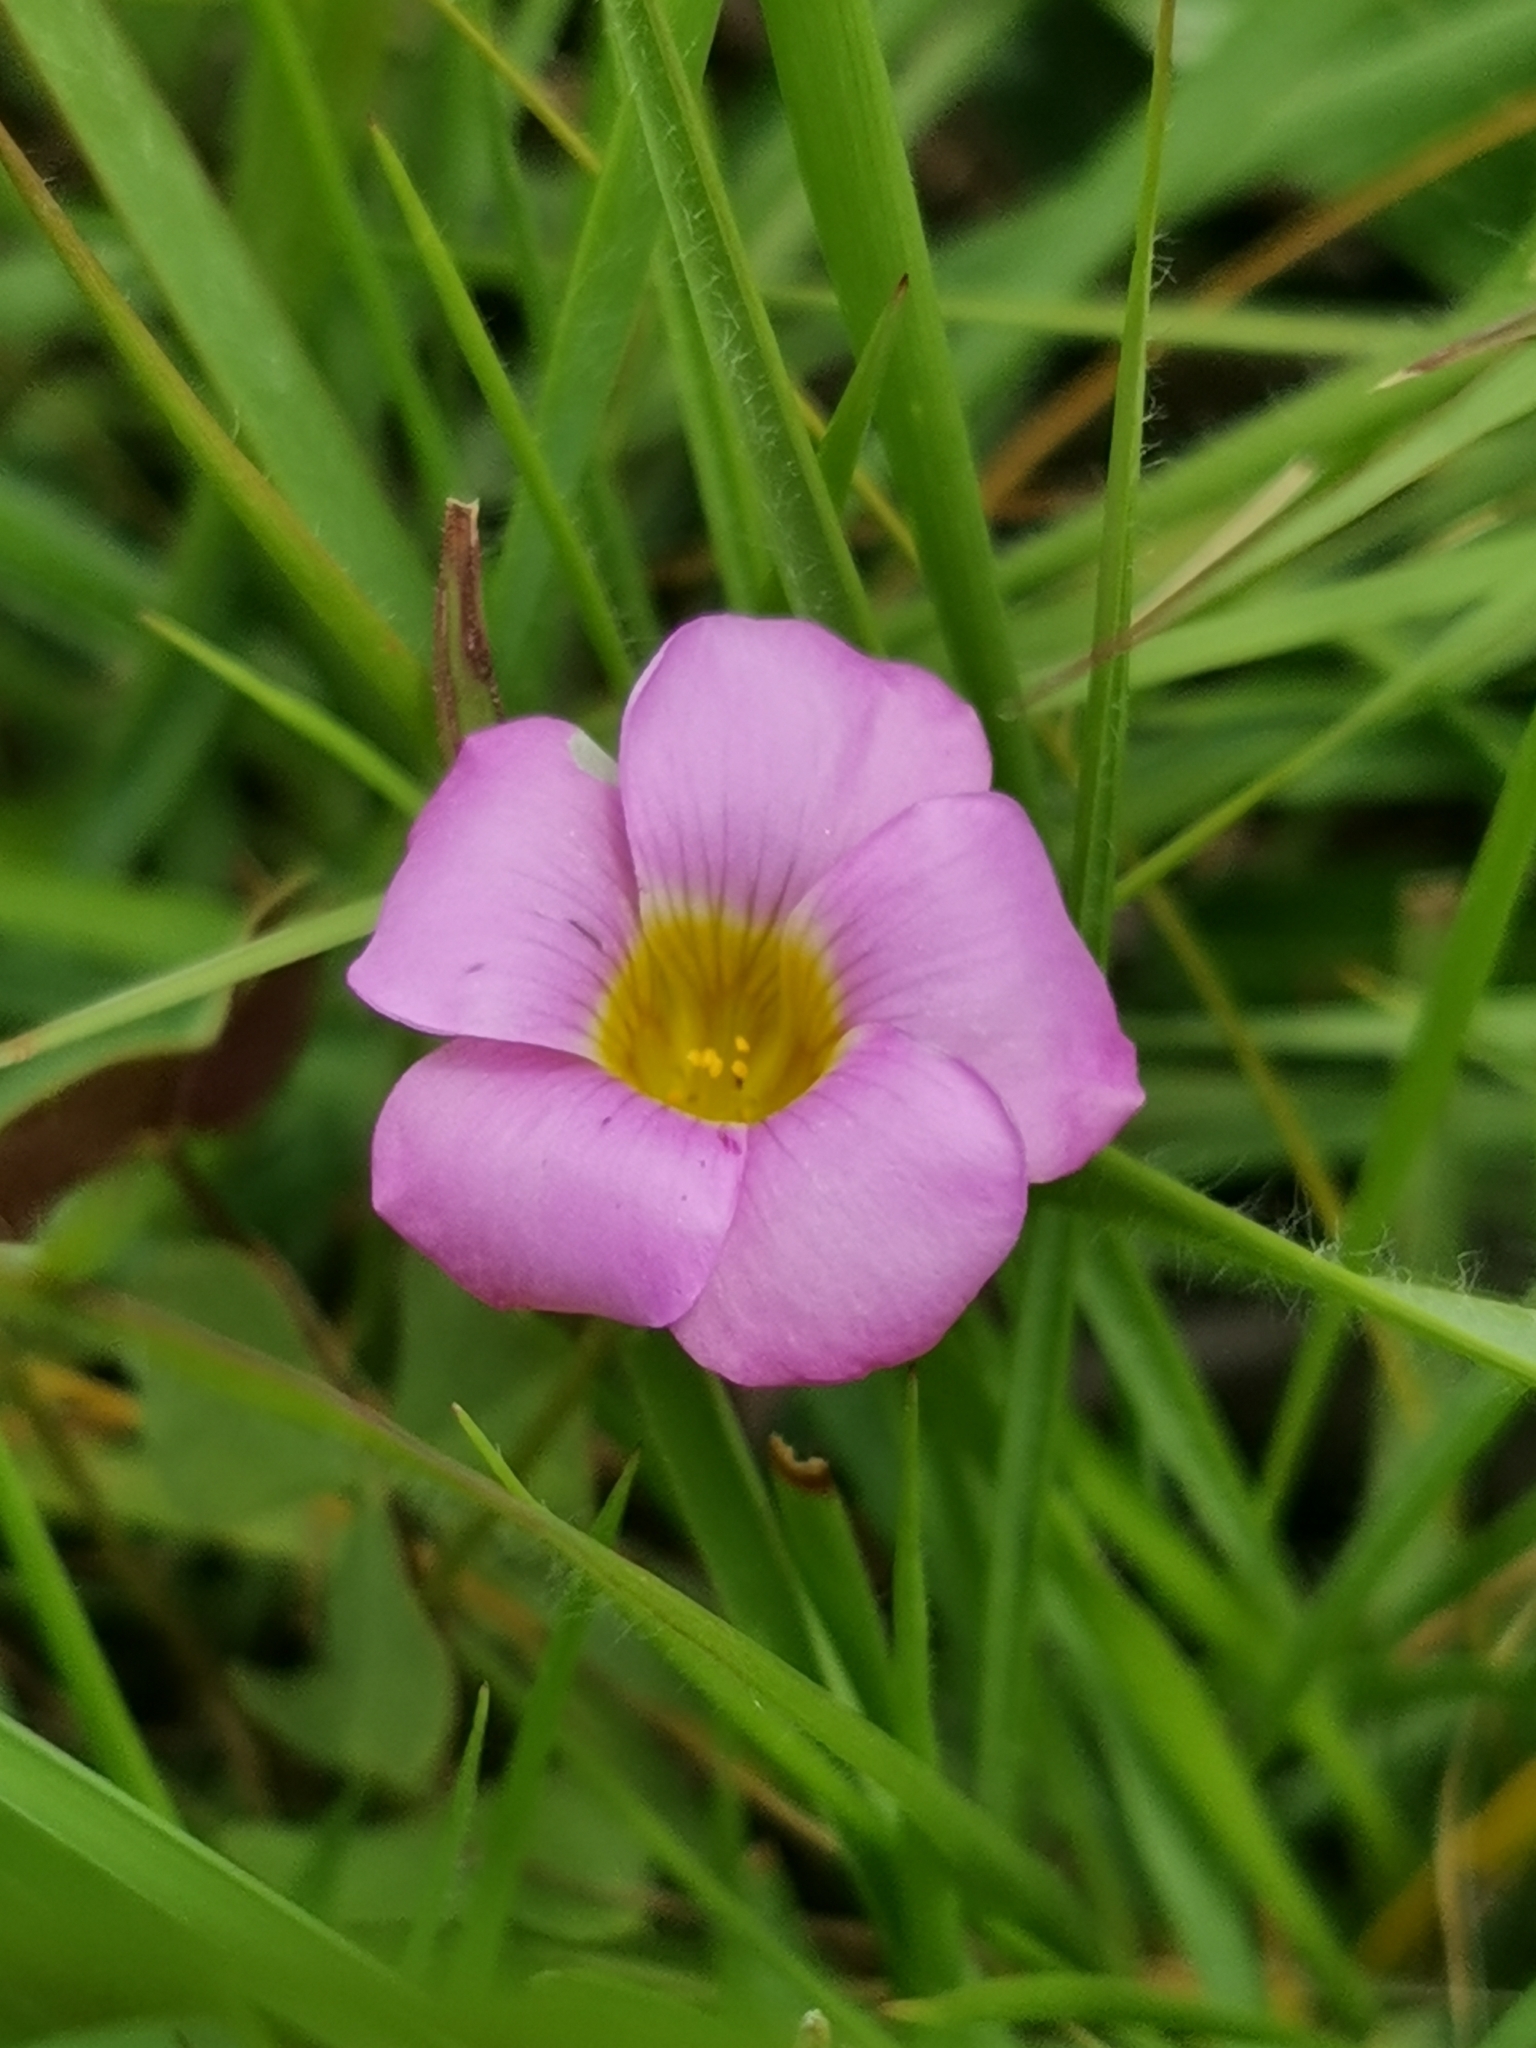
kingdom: Plantae
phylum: Tracheophyta
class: Magnoliopsida
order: Oxalidales
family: Oxalidaceae
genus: Oxalis
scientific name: Oxalis obliquifolia
